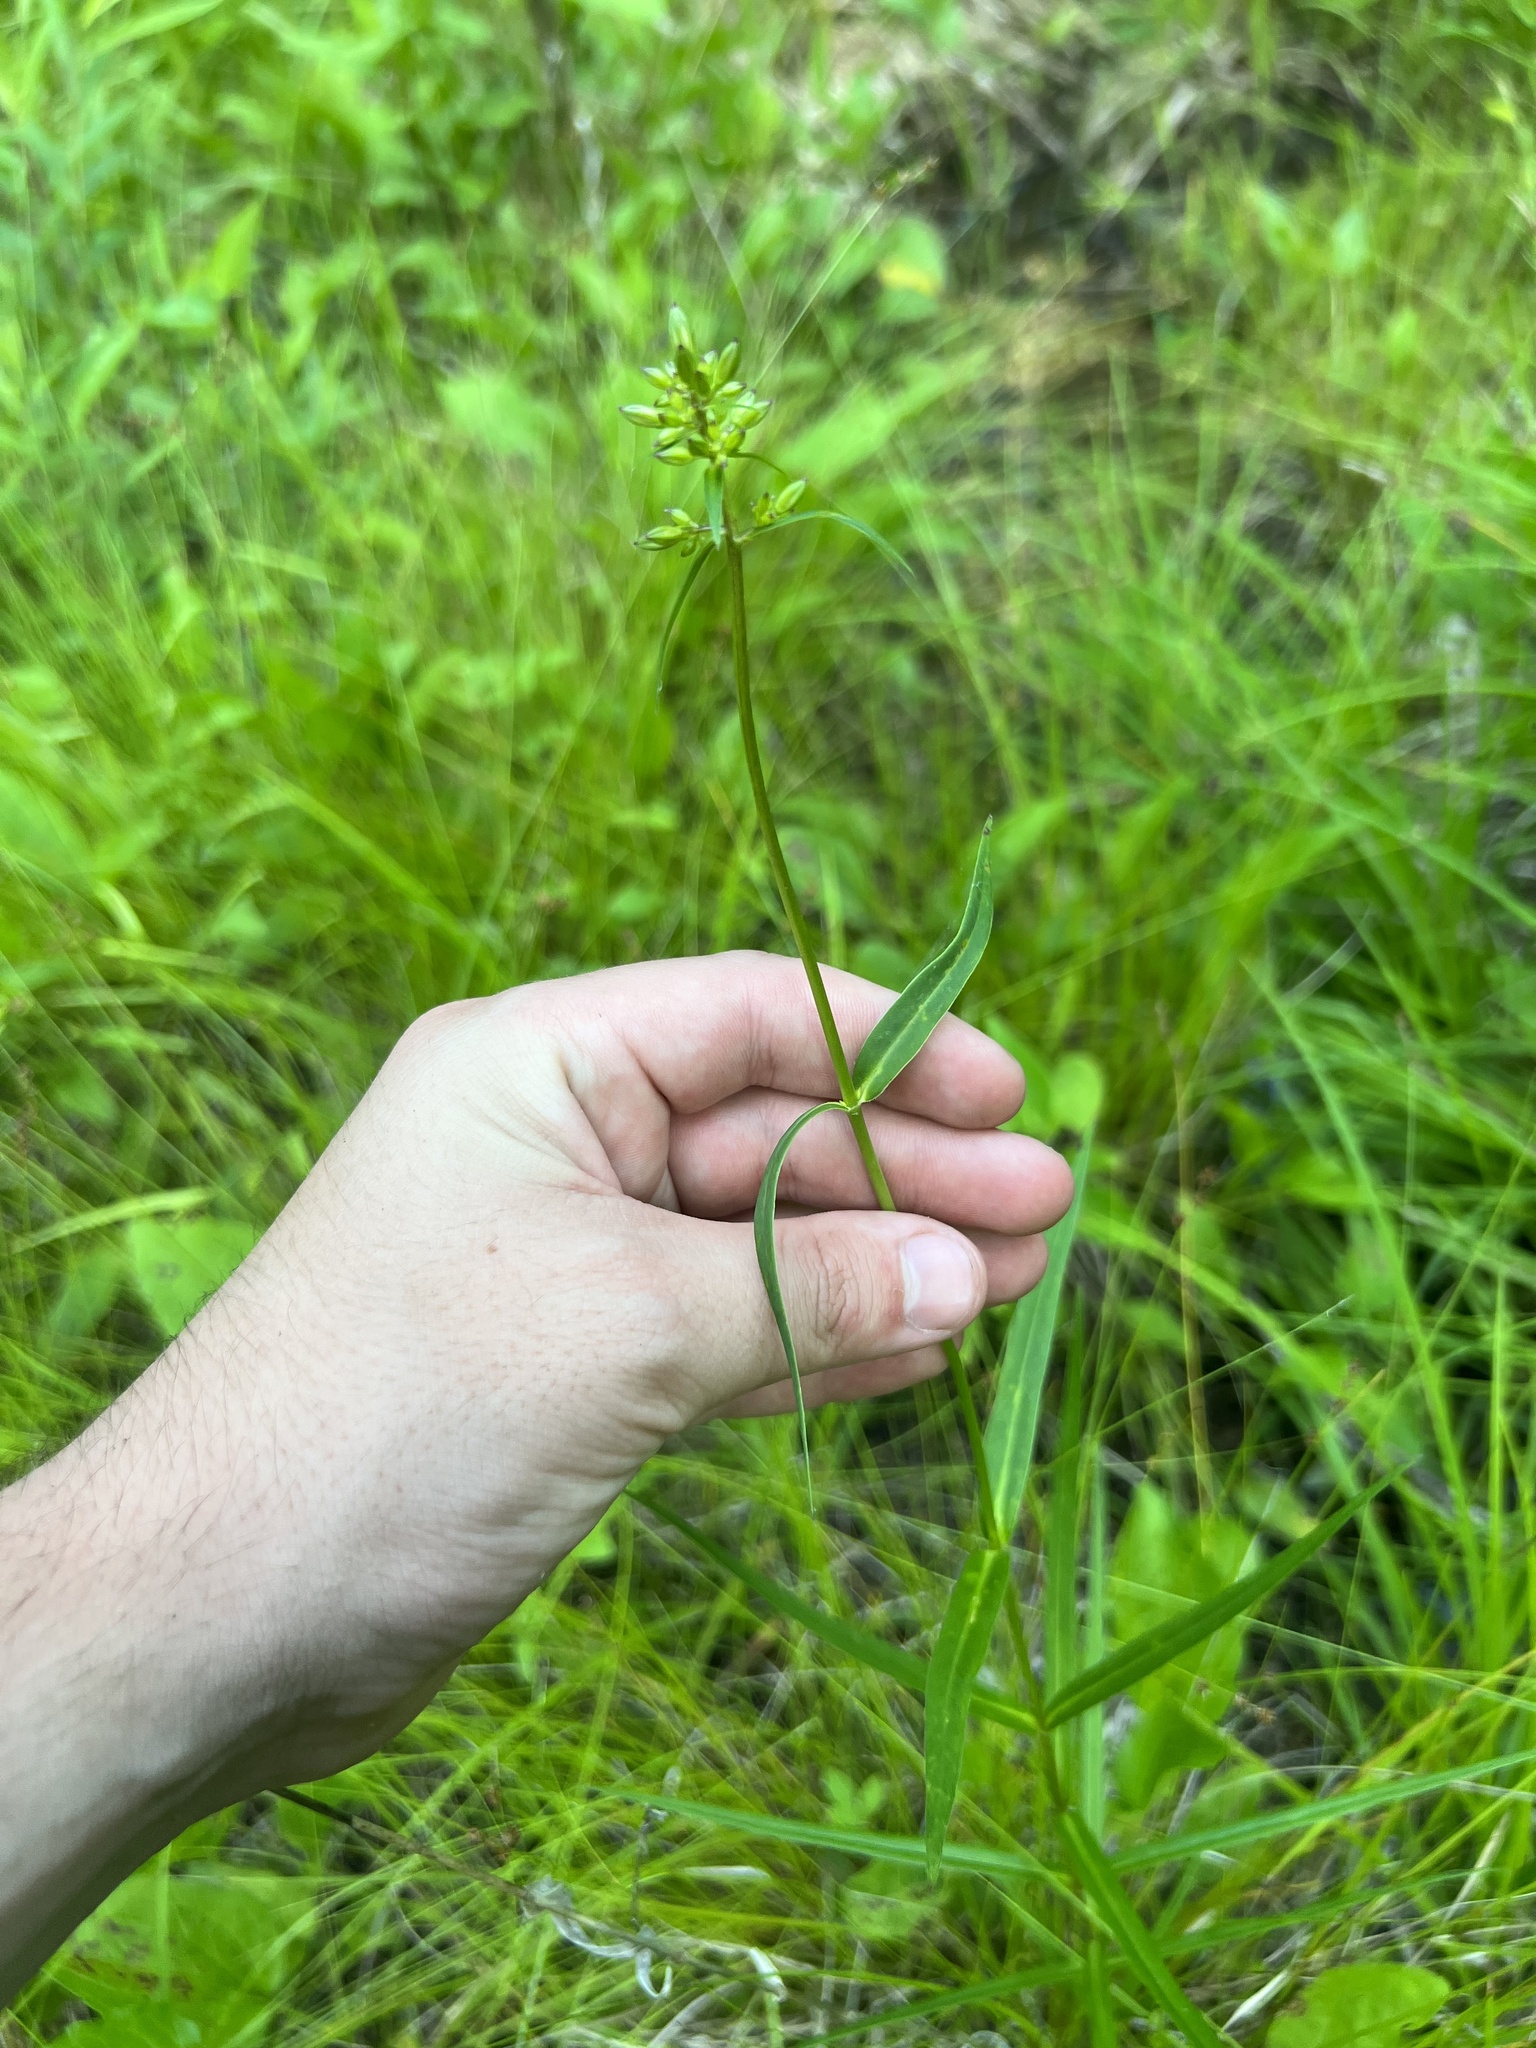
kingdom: Plantae
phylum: Tracheophyta
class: Magnoliopsida
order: Ericales
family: Polemoniaceae
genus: Phlox
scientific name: Phlox glaberrima
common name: Smooth phlox
